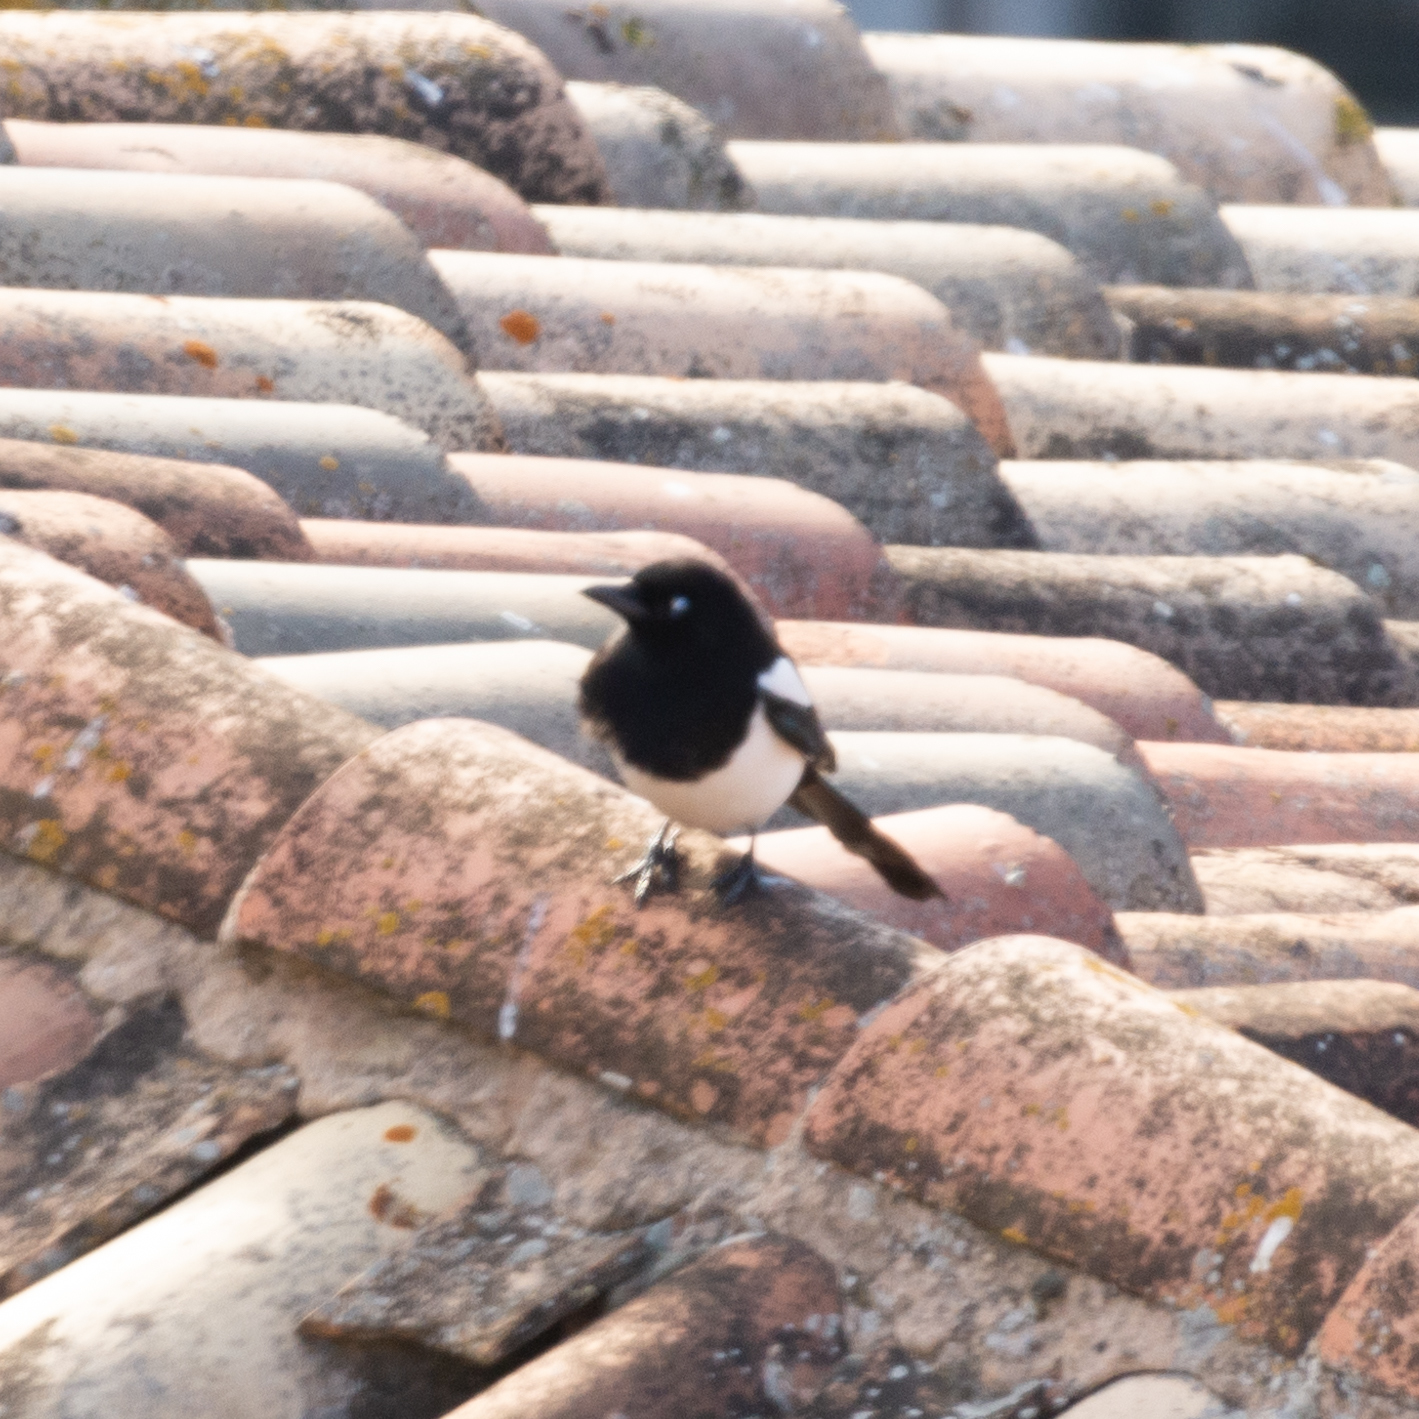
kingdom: Animalia
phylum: Chordata
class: Aves
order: Passeriformes
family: Corvidae
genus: Pica
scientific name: Pica pica
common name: Eurasian magpie
